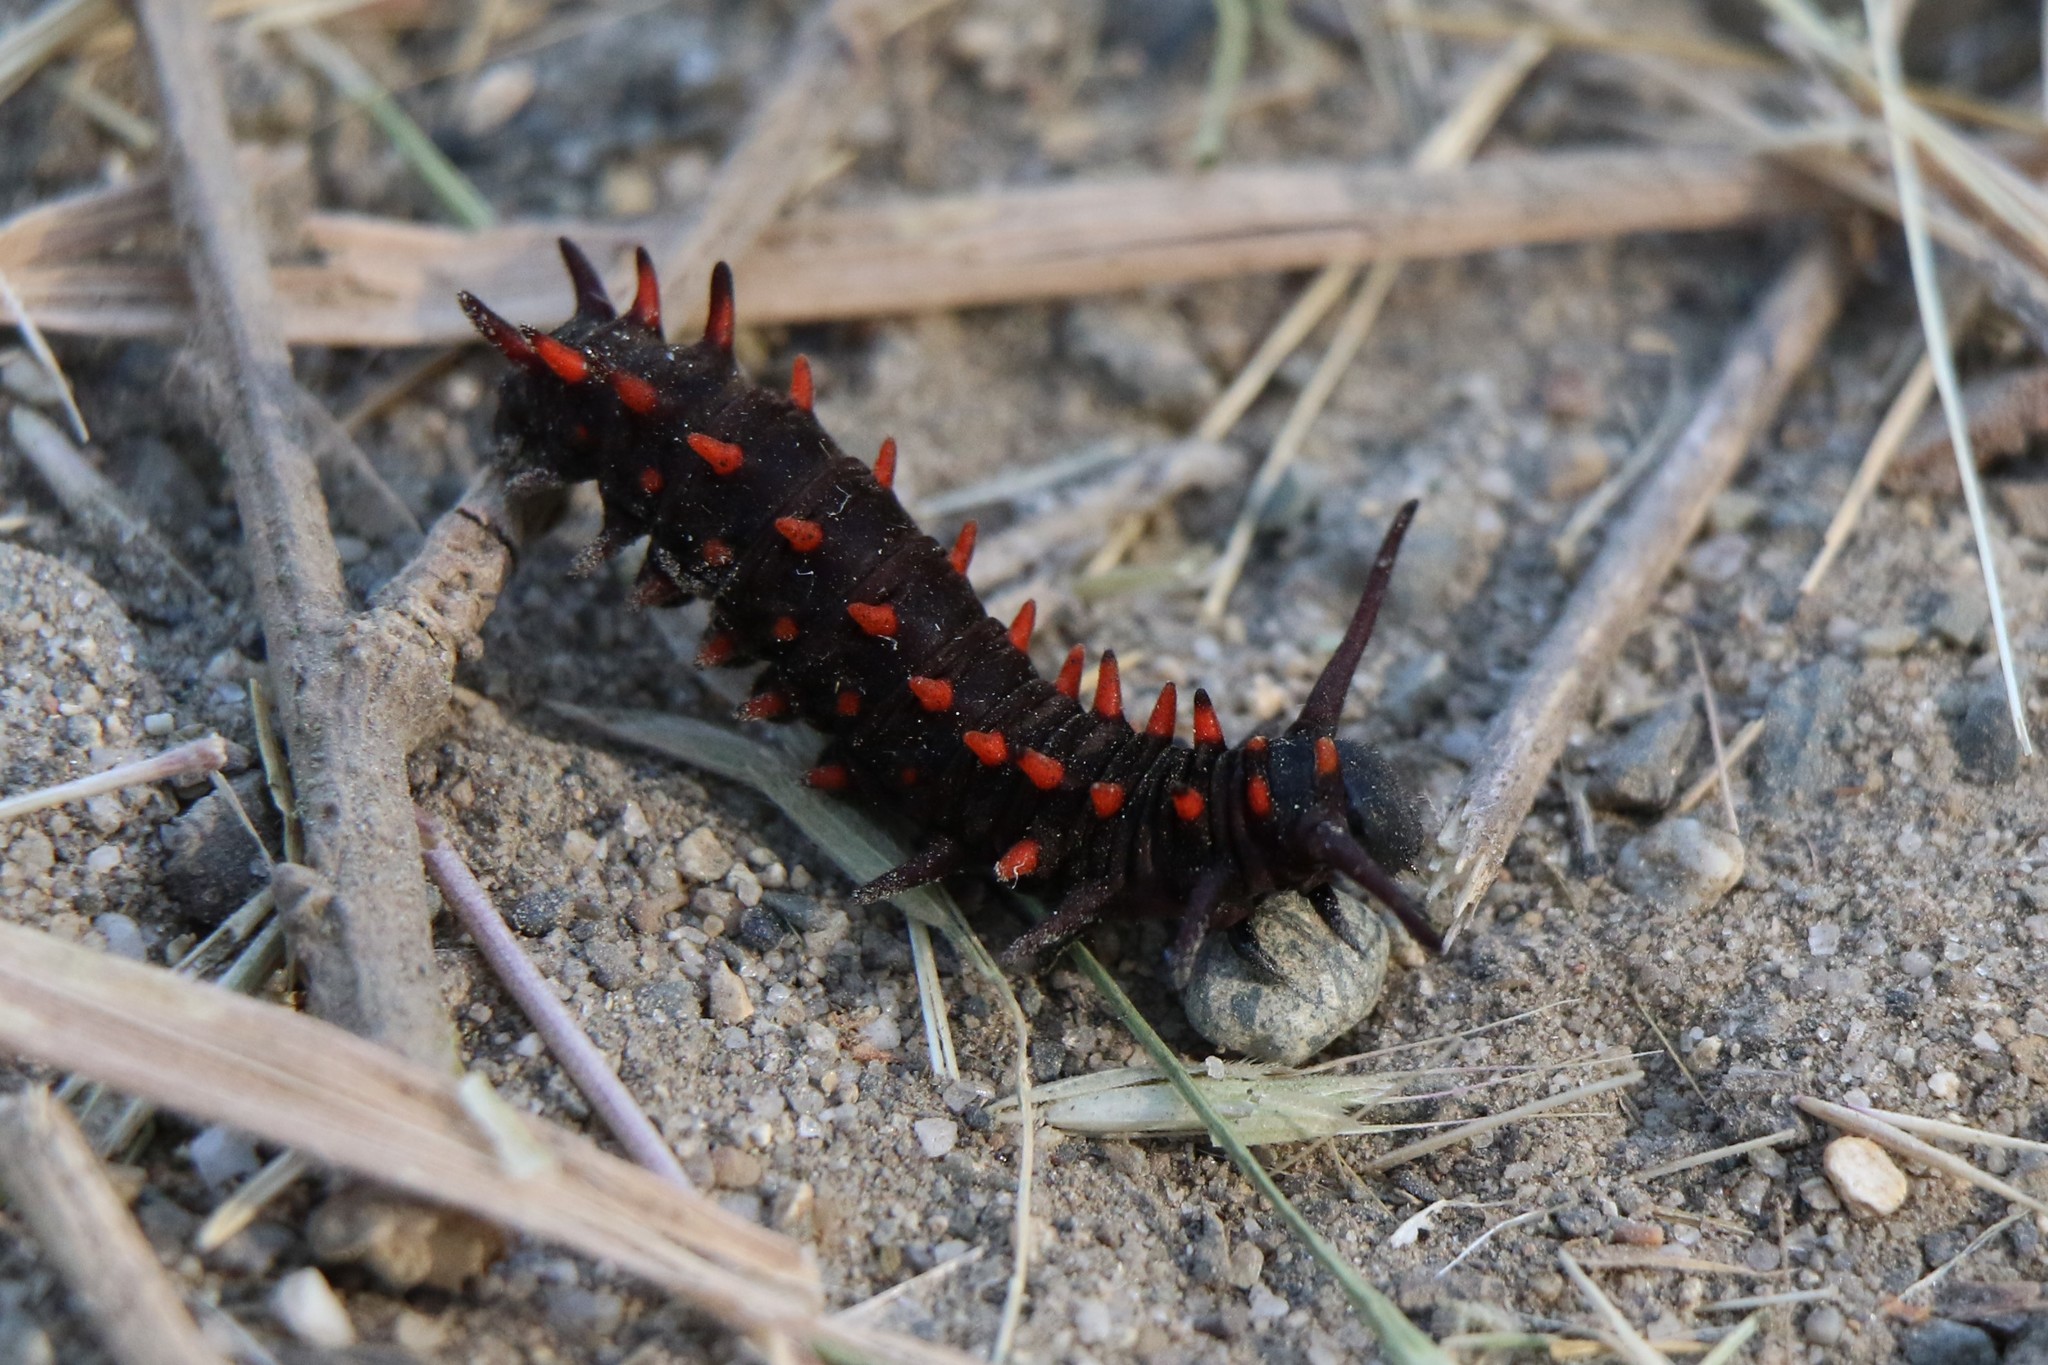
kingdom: Animalia
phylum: Arthropoda
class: Insecta
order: Lepidoptera
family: Papilionidae
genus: Battus
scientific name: Battus philenor
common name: Pipevine swallowtail
